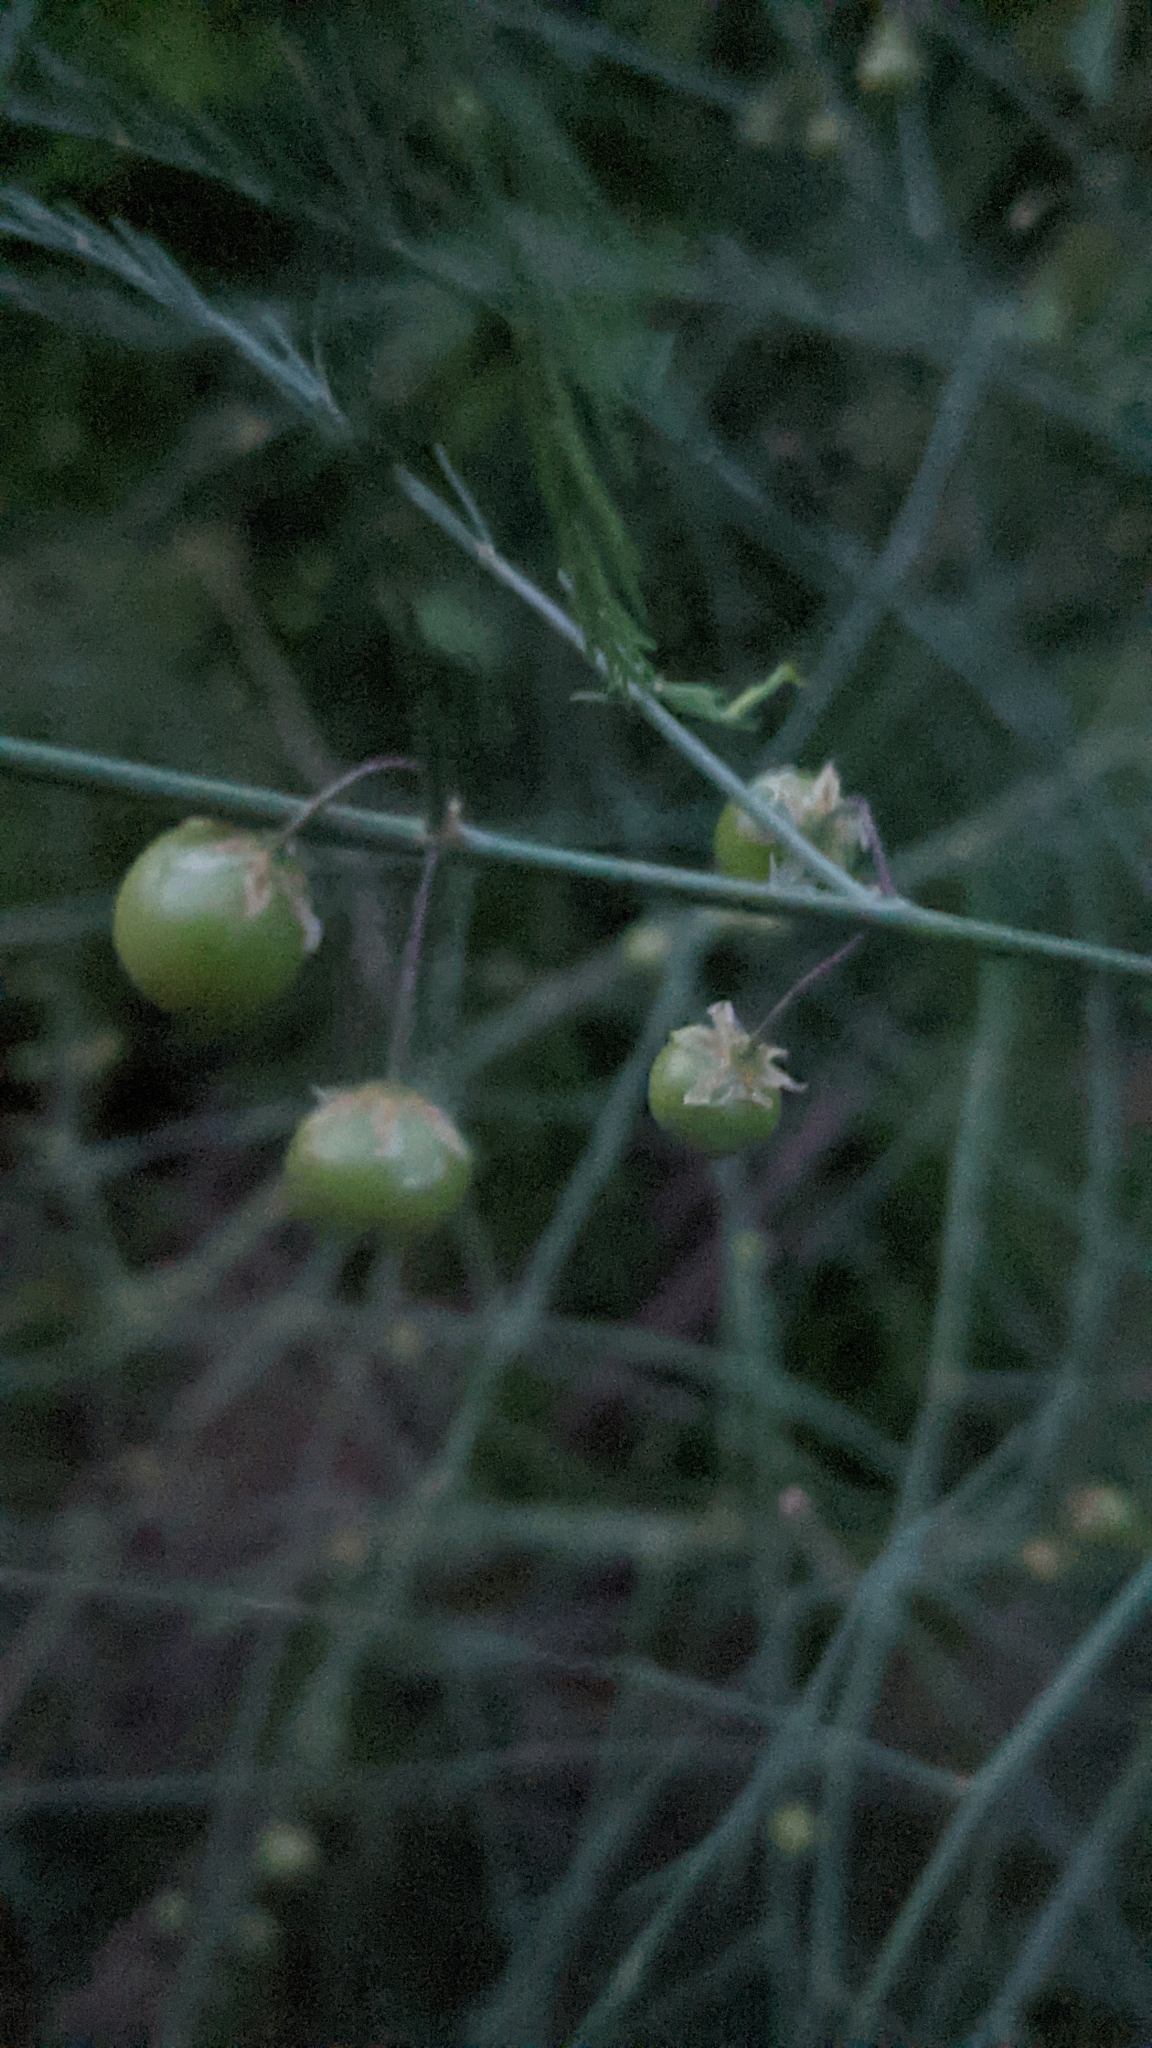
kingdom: Plantae
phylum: Tracheophyta
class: Liliopsida
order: Asparagales
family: Asparagaceae
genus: Asparagus
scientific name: Asparagus officinalis
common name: Garden asparagus
